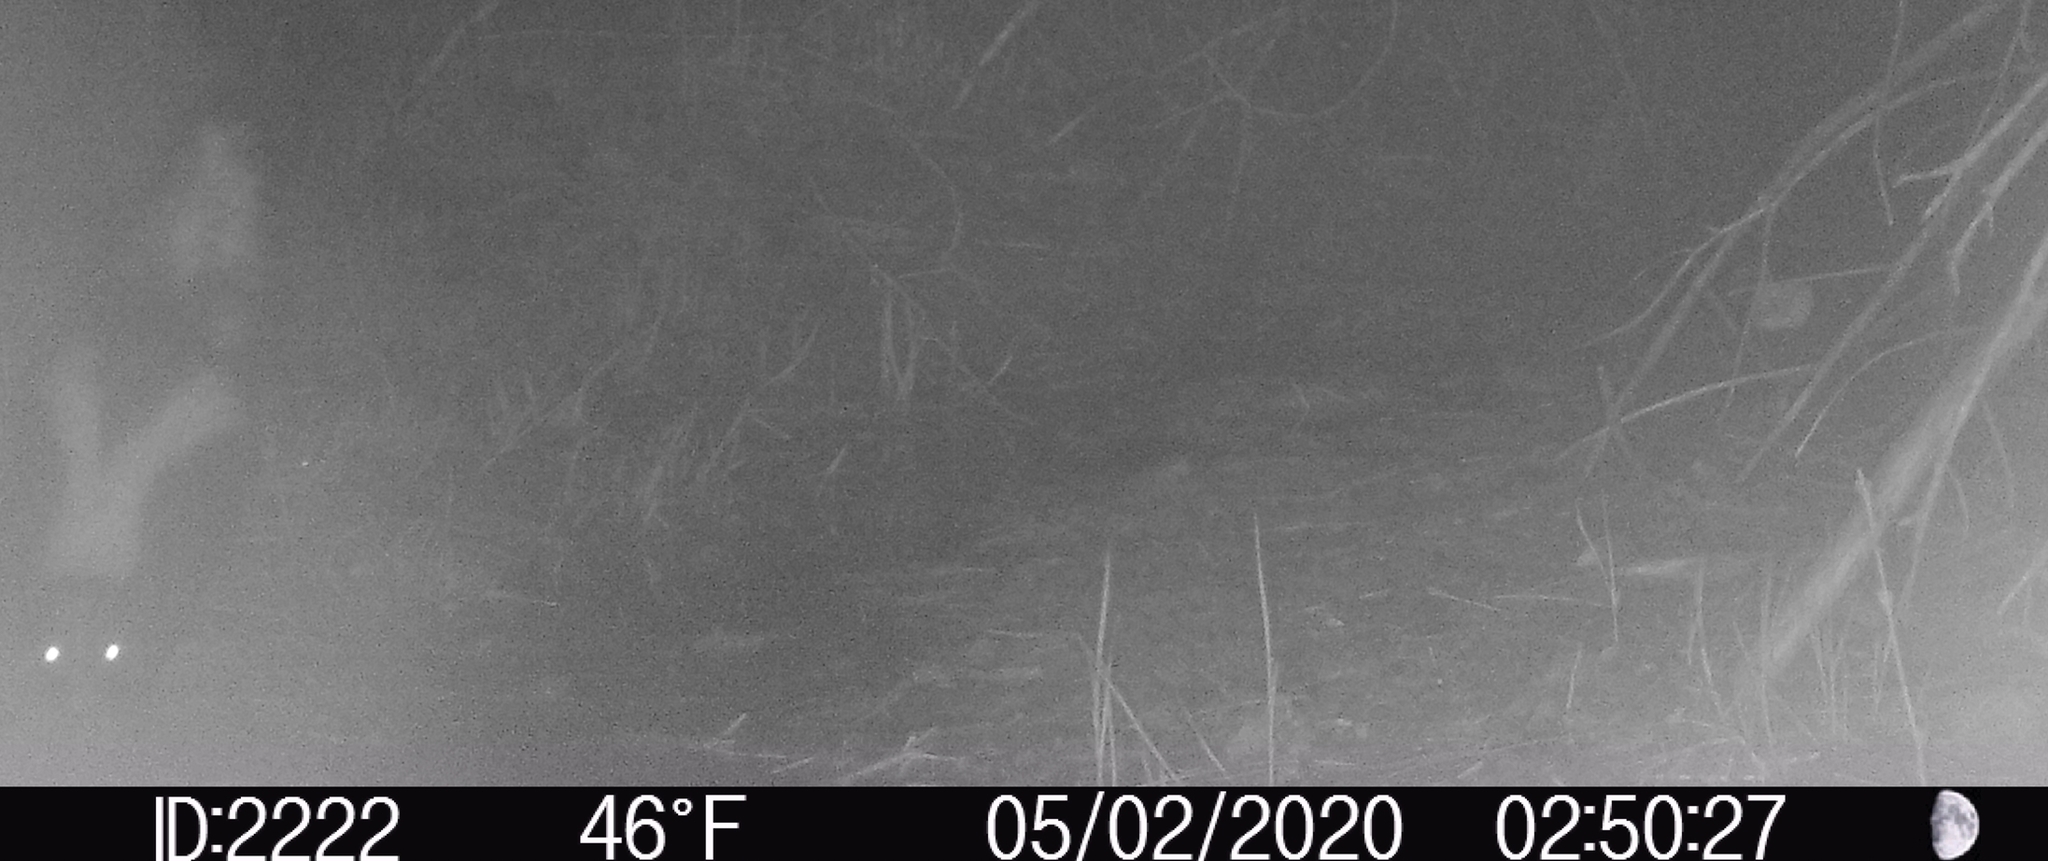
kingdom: Animalia
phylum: Chordata
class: Mammalia
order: Carnivora
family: Mephitidae
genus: Mephitis
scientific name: Mephitis mephitis
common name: Striped skunk
